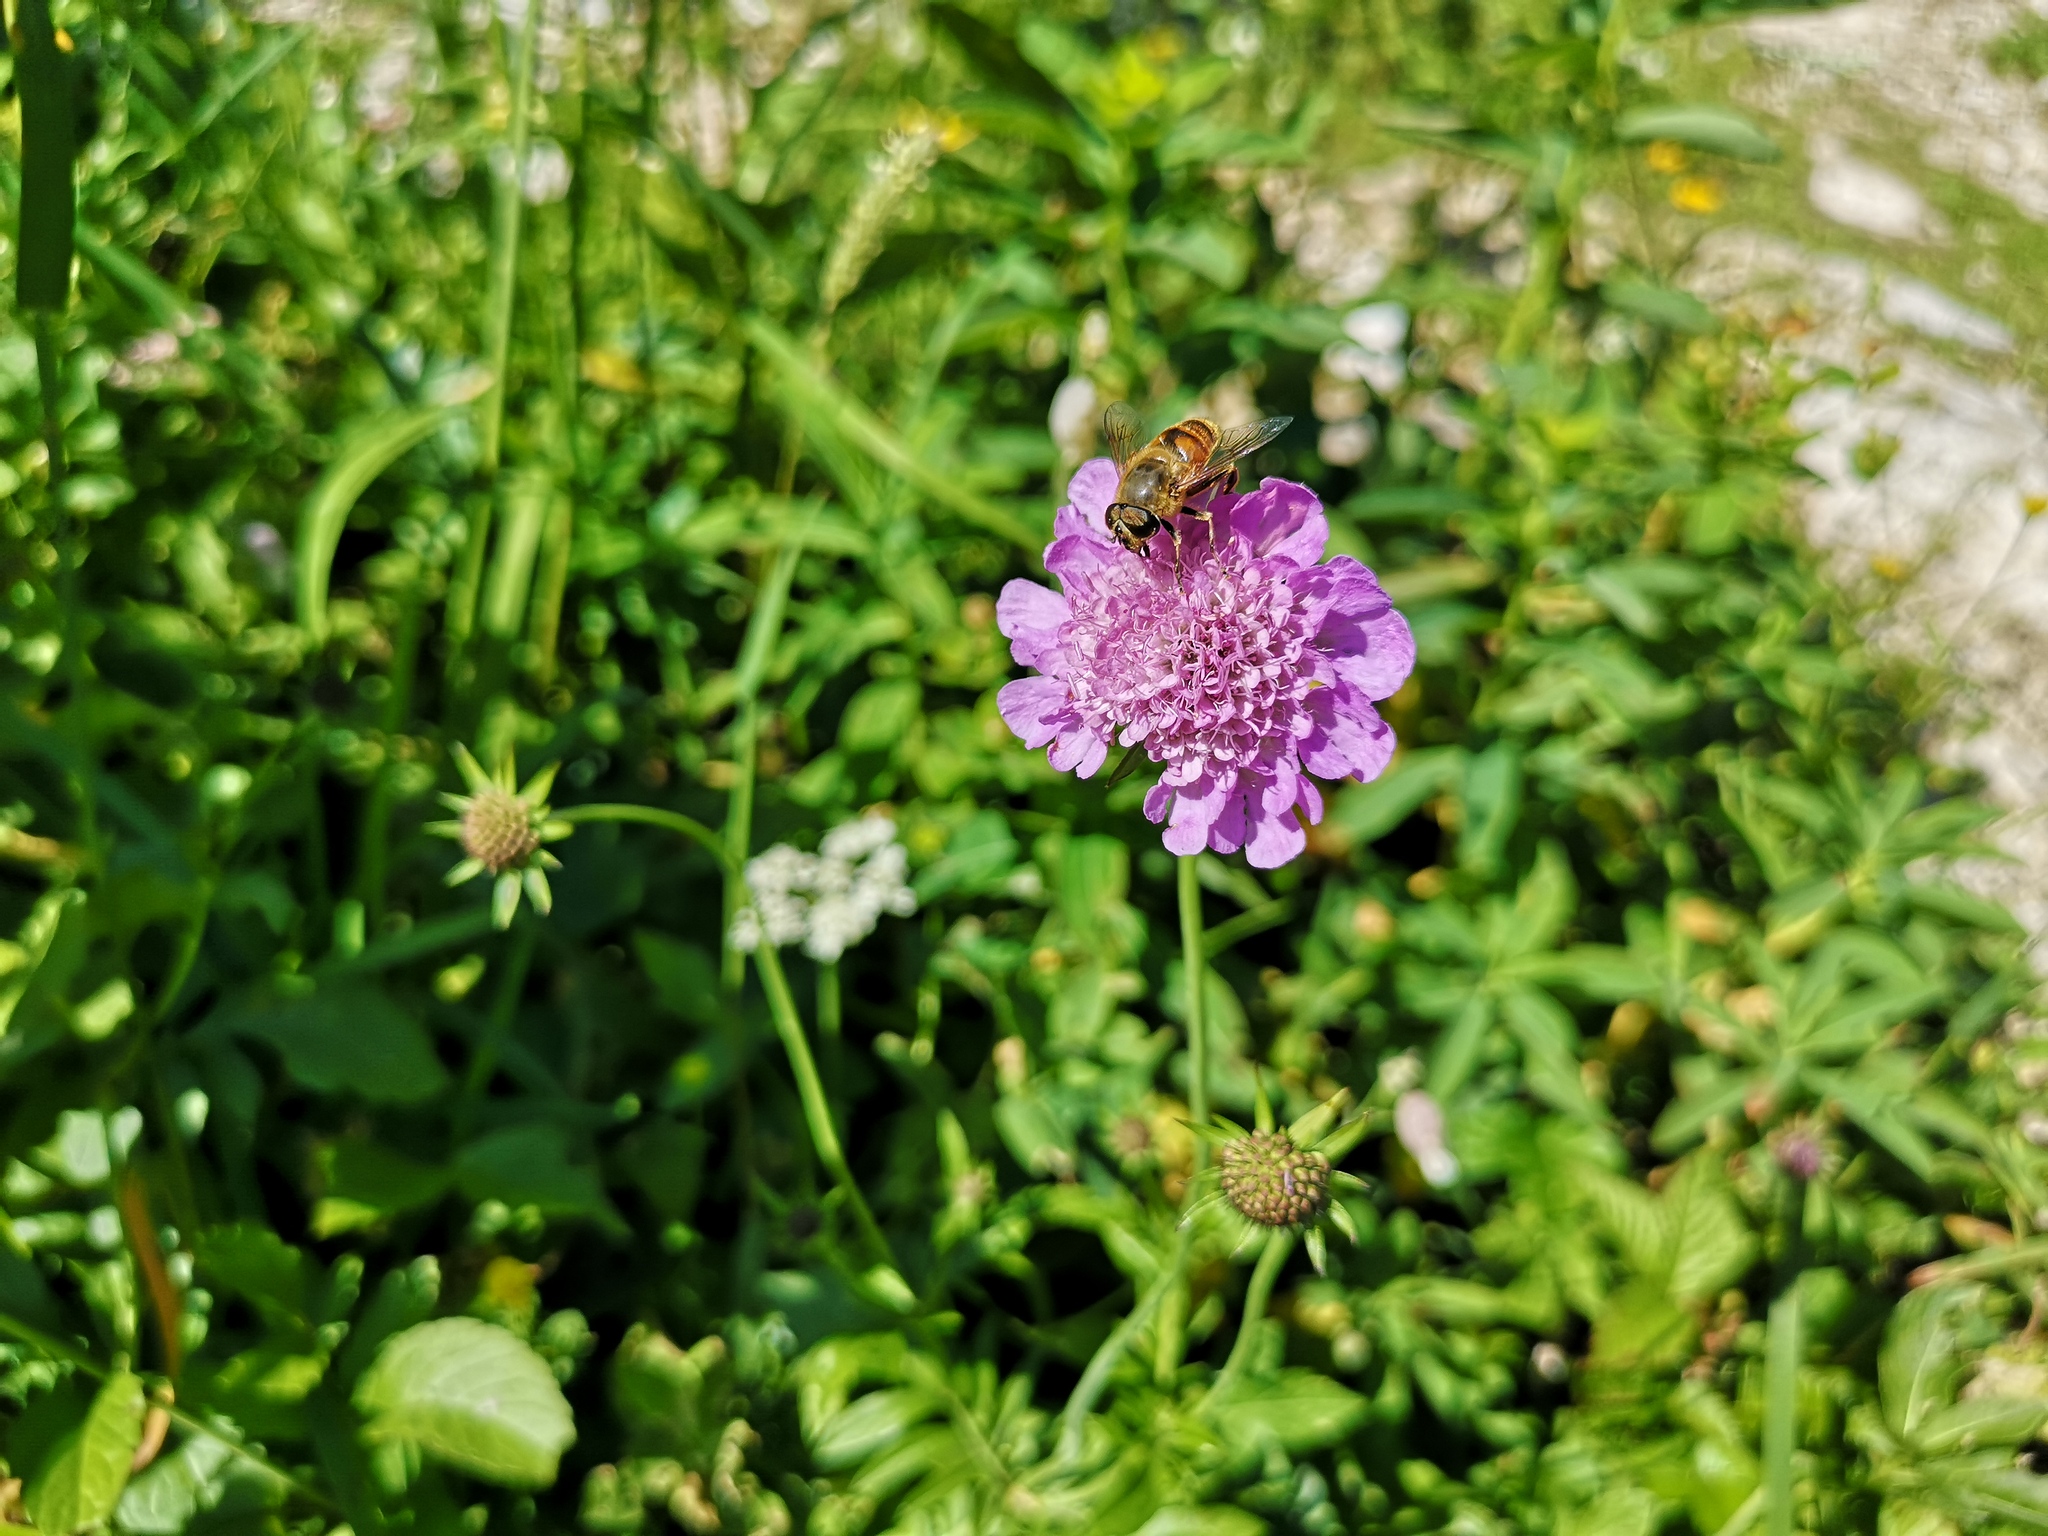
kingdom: Plantae
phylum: Tracheophyta
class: Magnoliopsida
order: Dipsacales
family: Caprifoliaceae
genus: Scabiosa
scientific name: Scabiosa lucida
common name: Shining scabious
